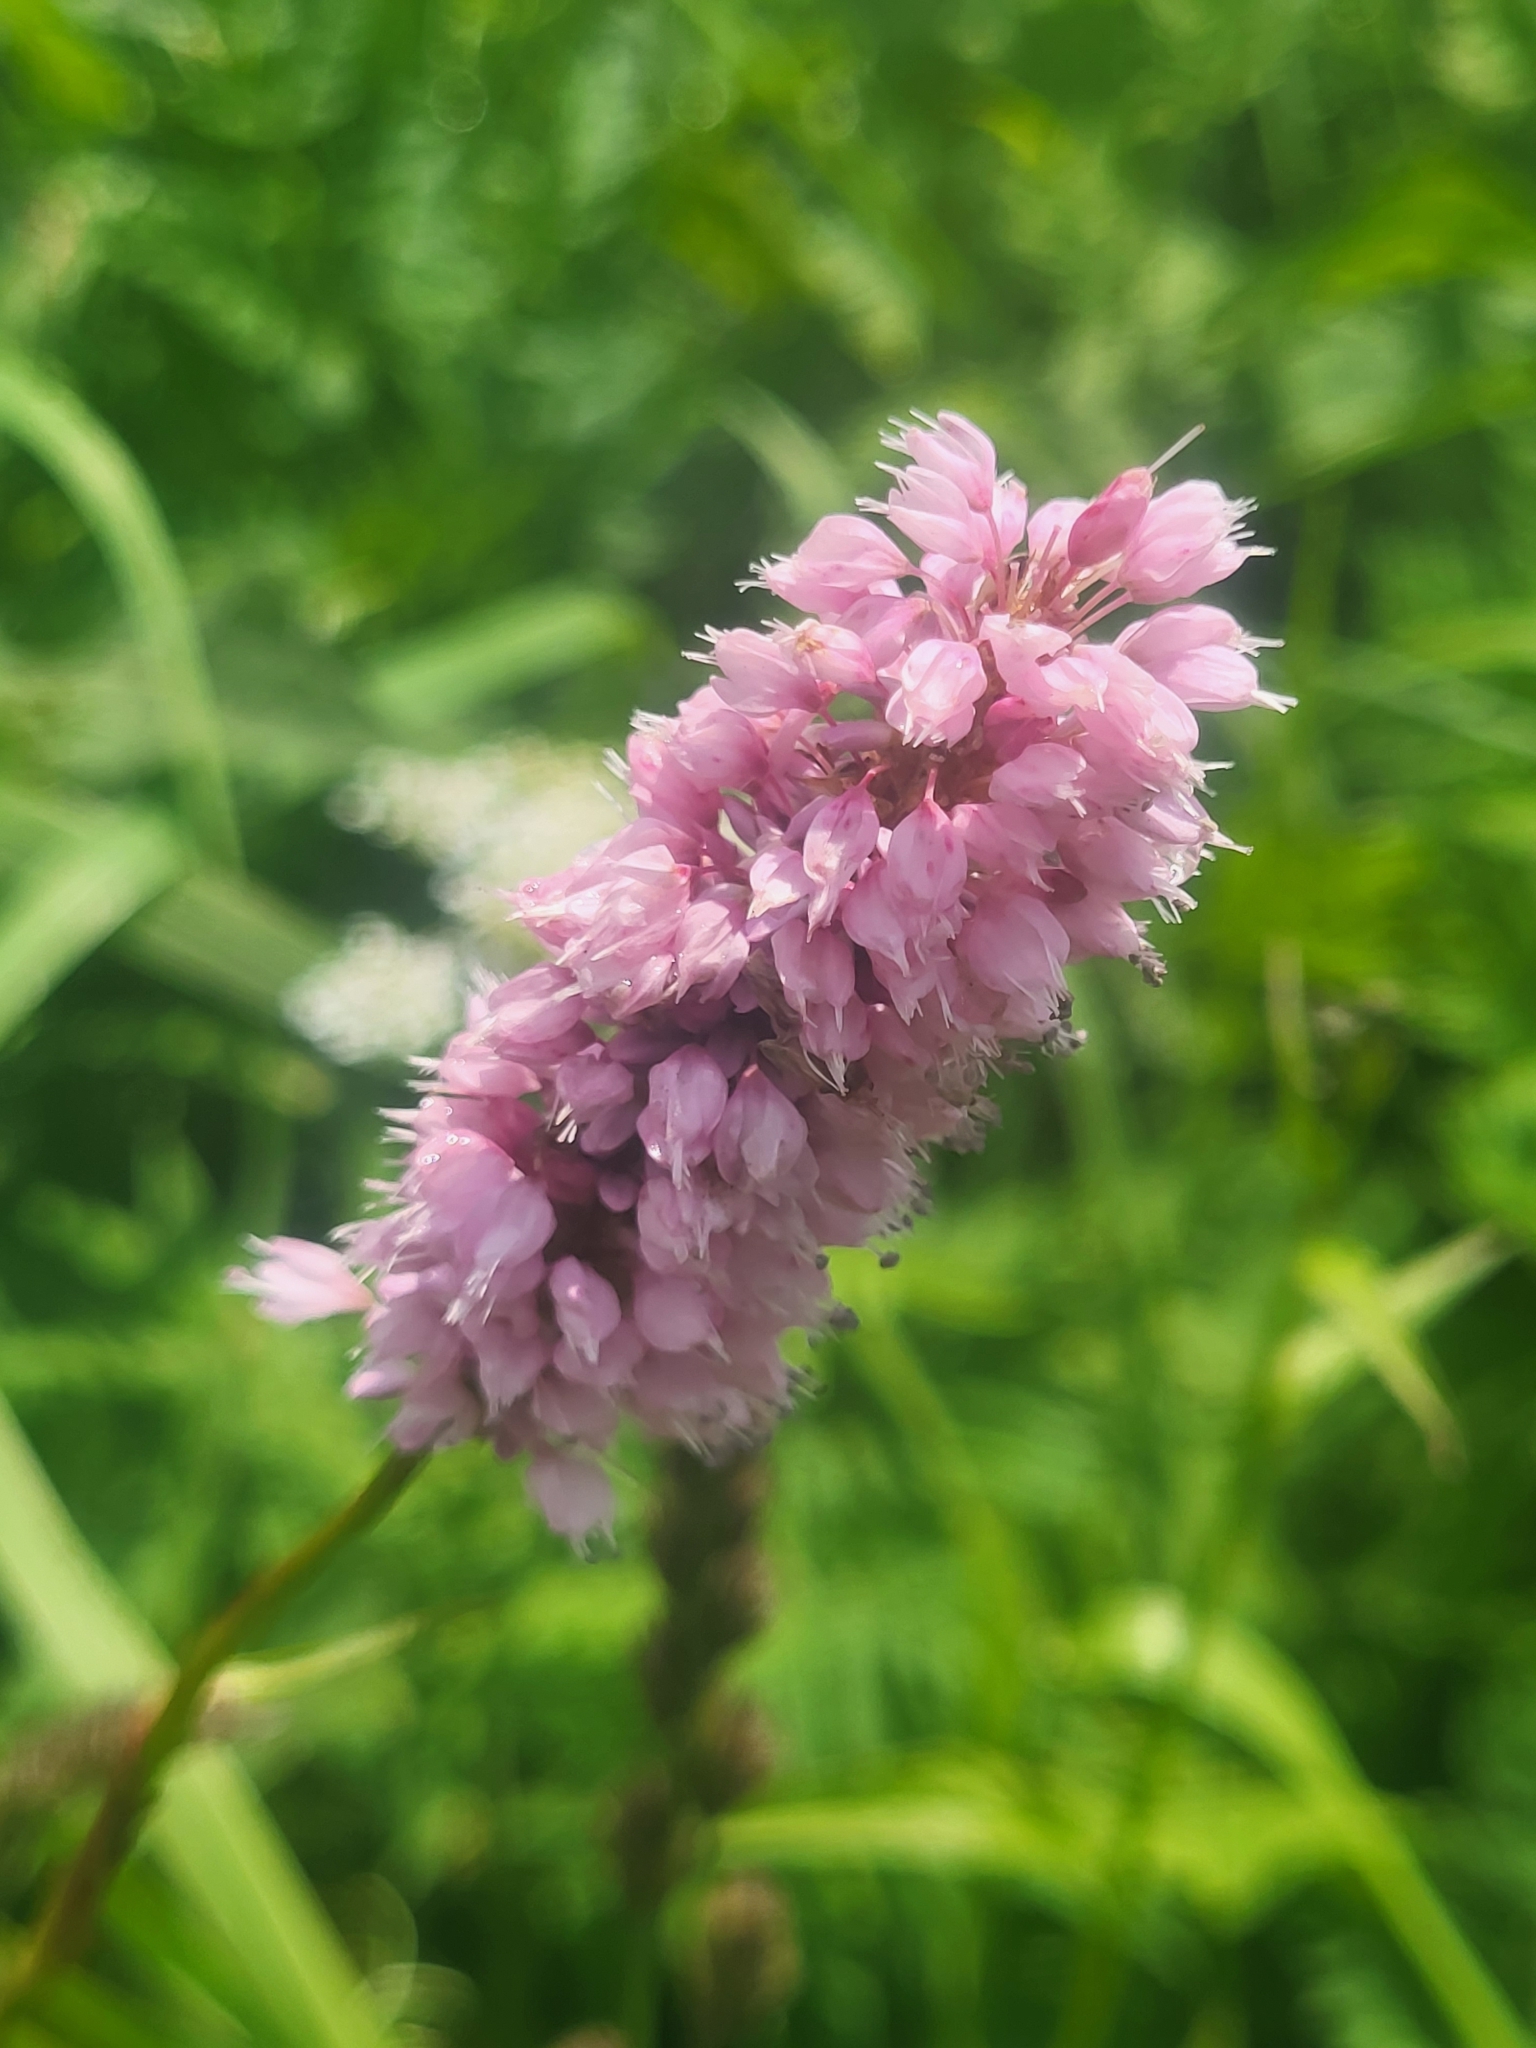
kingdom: Plantae
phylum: Tracheophyta
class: Magnoliopsida
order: Caryophyllales
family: Polygonaceae
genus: Bistorta
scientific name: Bistorta carnea
